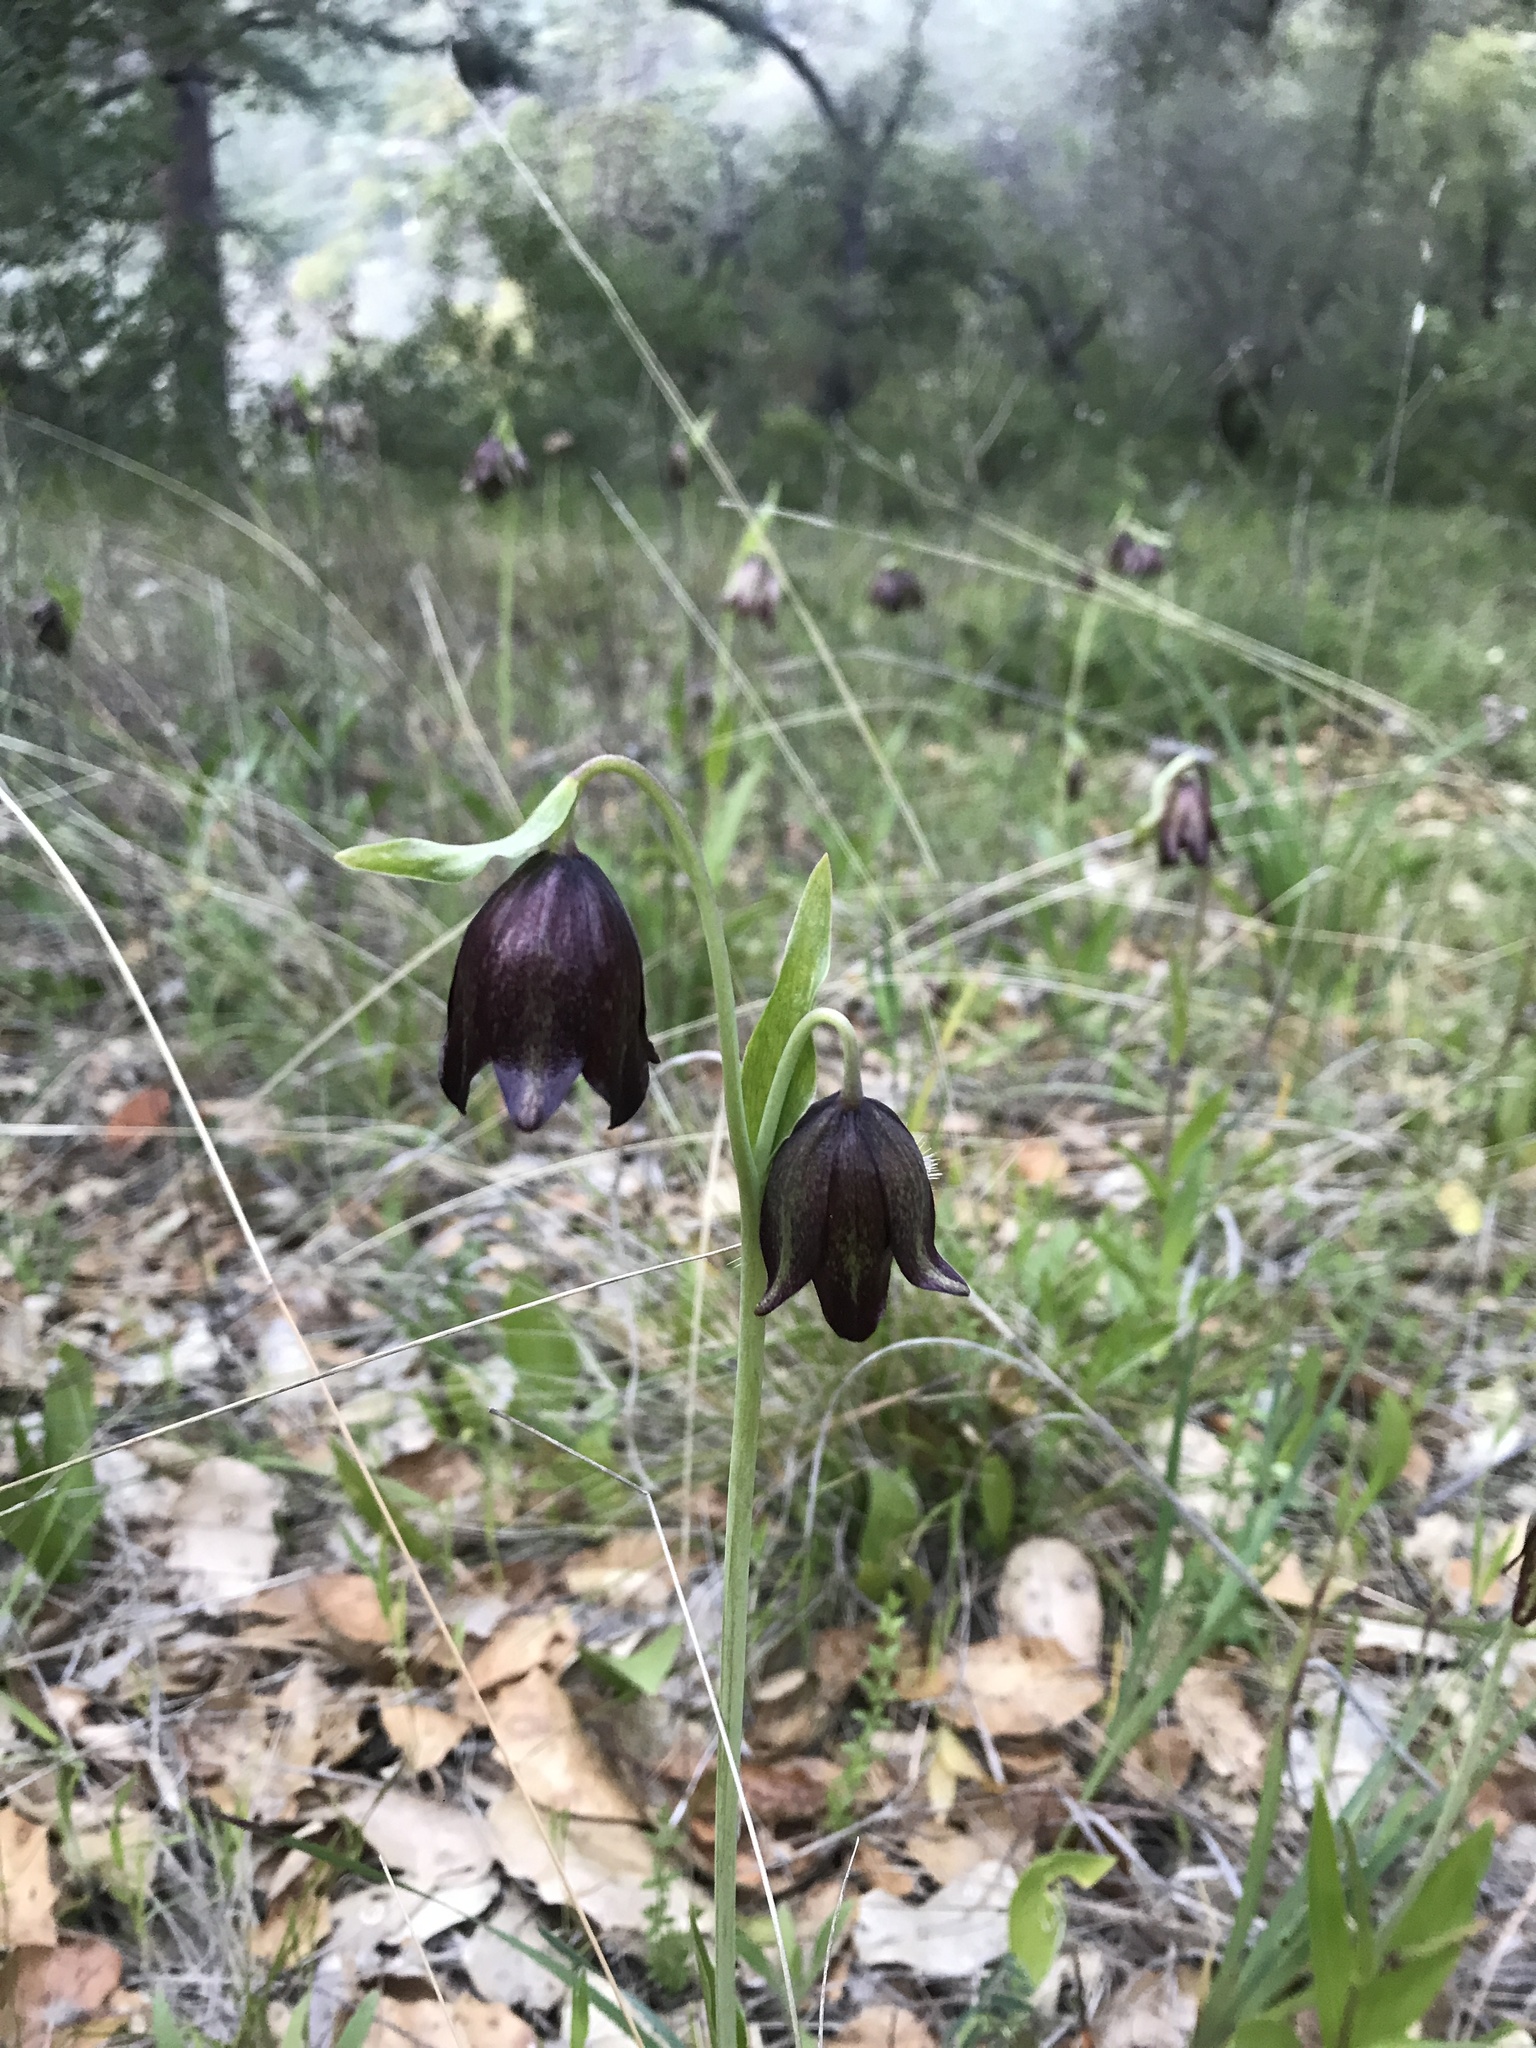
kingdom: Plantae
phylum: Tracheophyta
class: Liliopsida
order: Liliales
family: Liliaceae
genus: Fritillaria
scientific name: Fritillaria biflora
